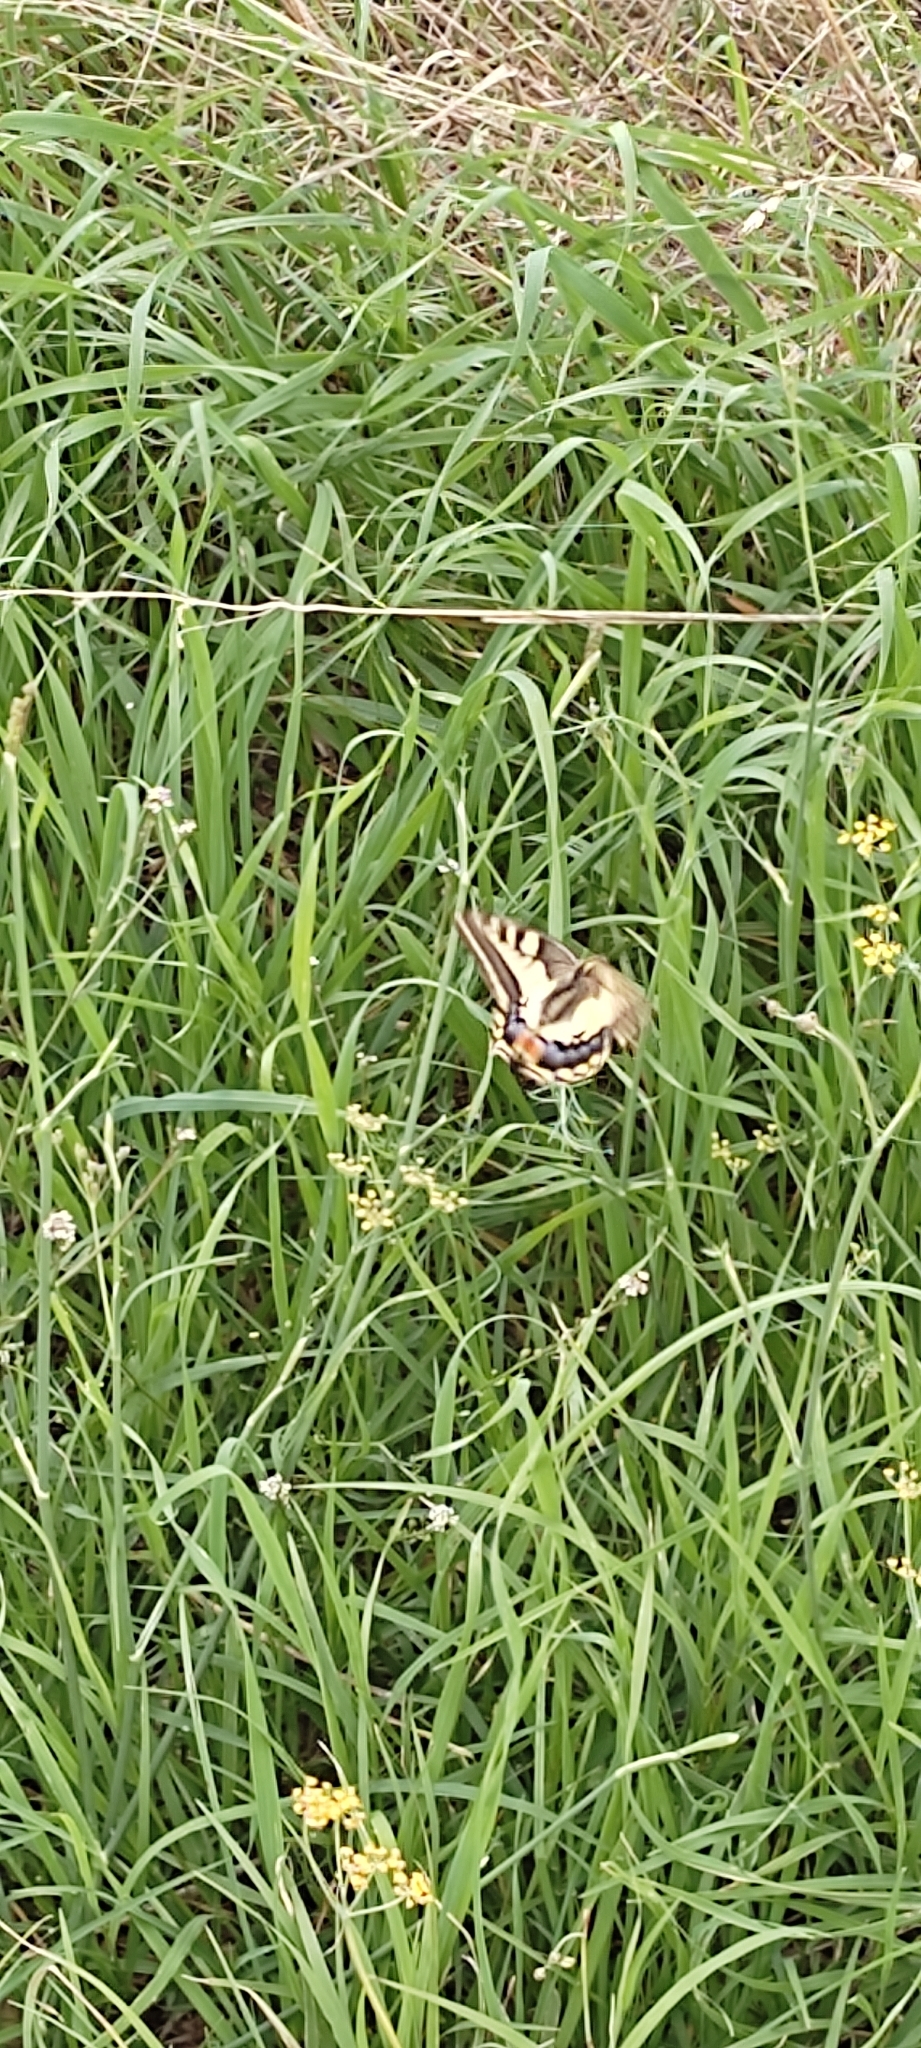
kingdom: Animalia
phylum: Arthropoda
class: Insecta
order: Lepidoptera
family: Papilionidae
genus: Papilio
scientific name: Papilio machaon
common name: Swallowtail
